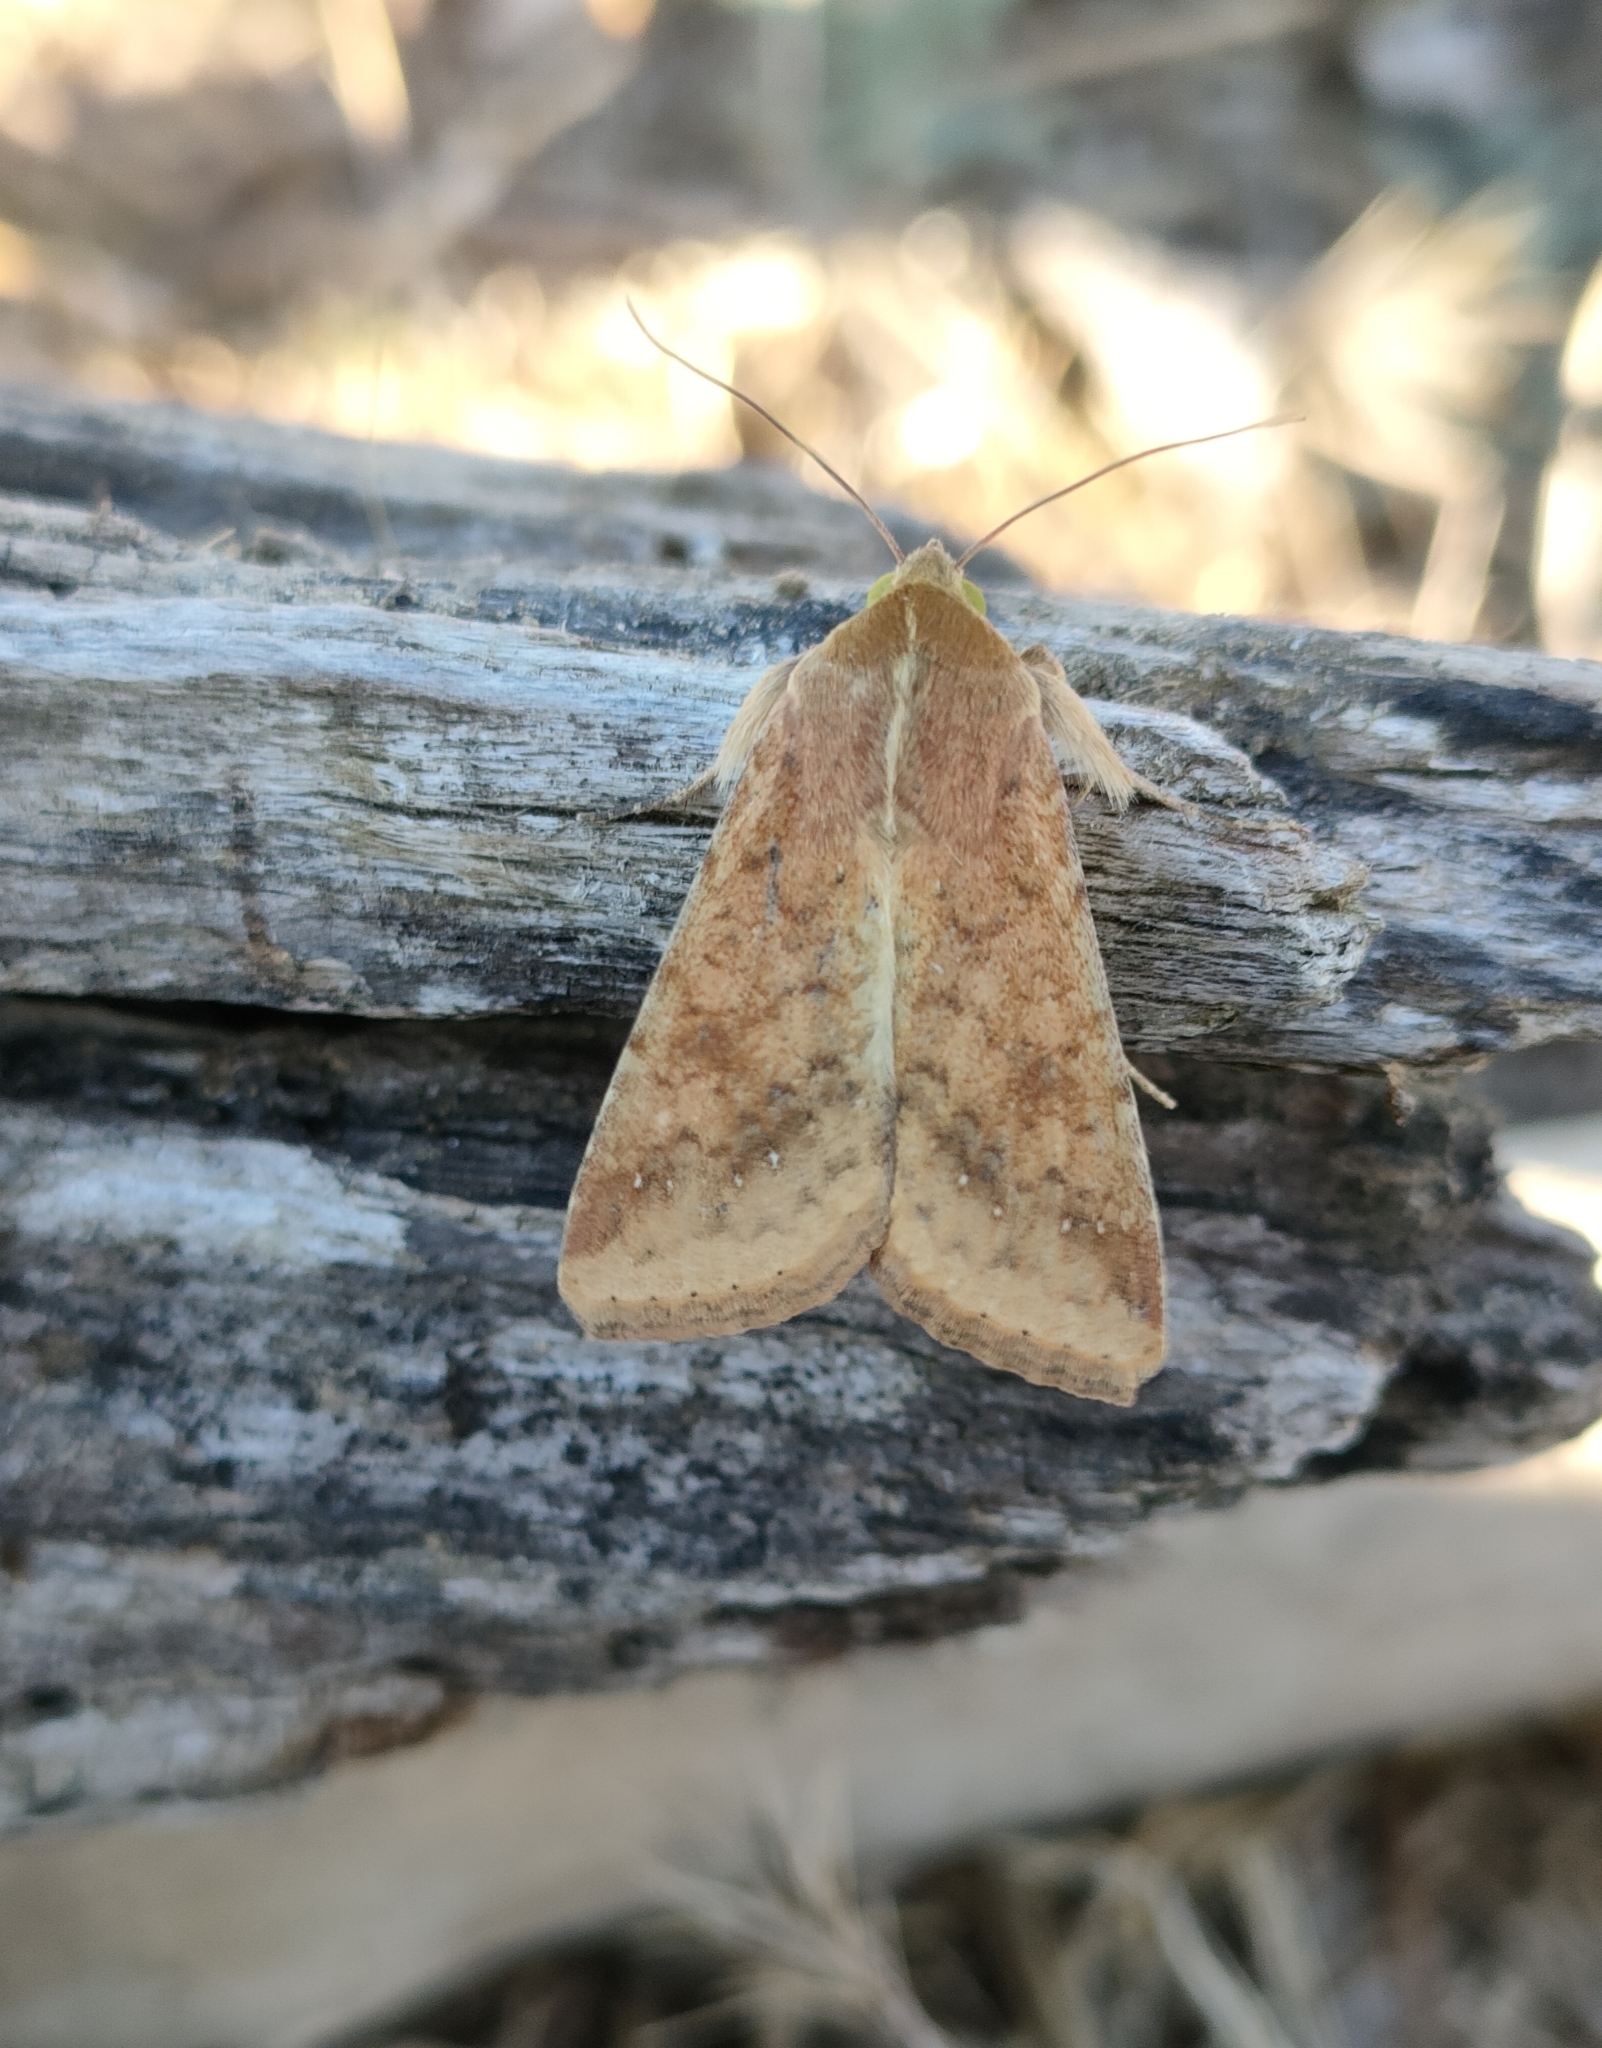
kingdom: Animalia
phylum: Arthropoda
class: Insecta
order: Lepidoptera
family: Noctuidae
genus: Helicoverpa
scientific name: Helicoverpa armigera
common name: Cotton bollworm
